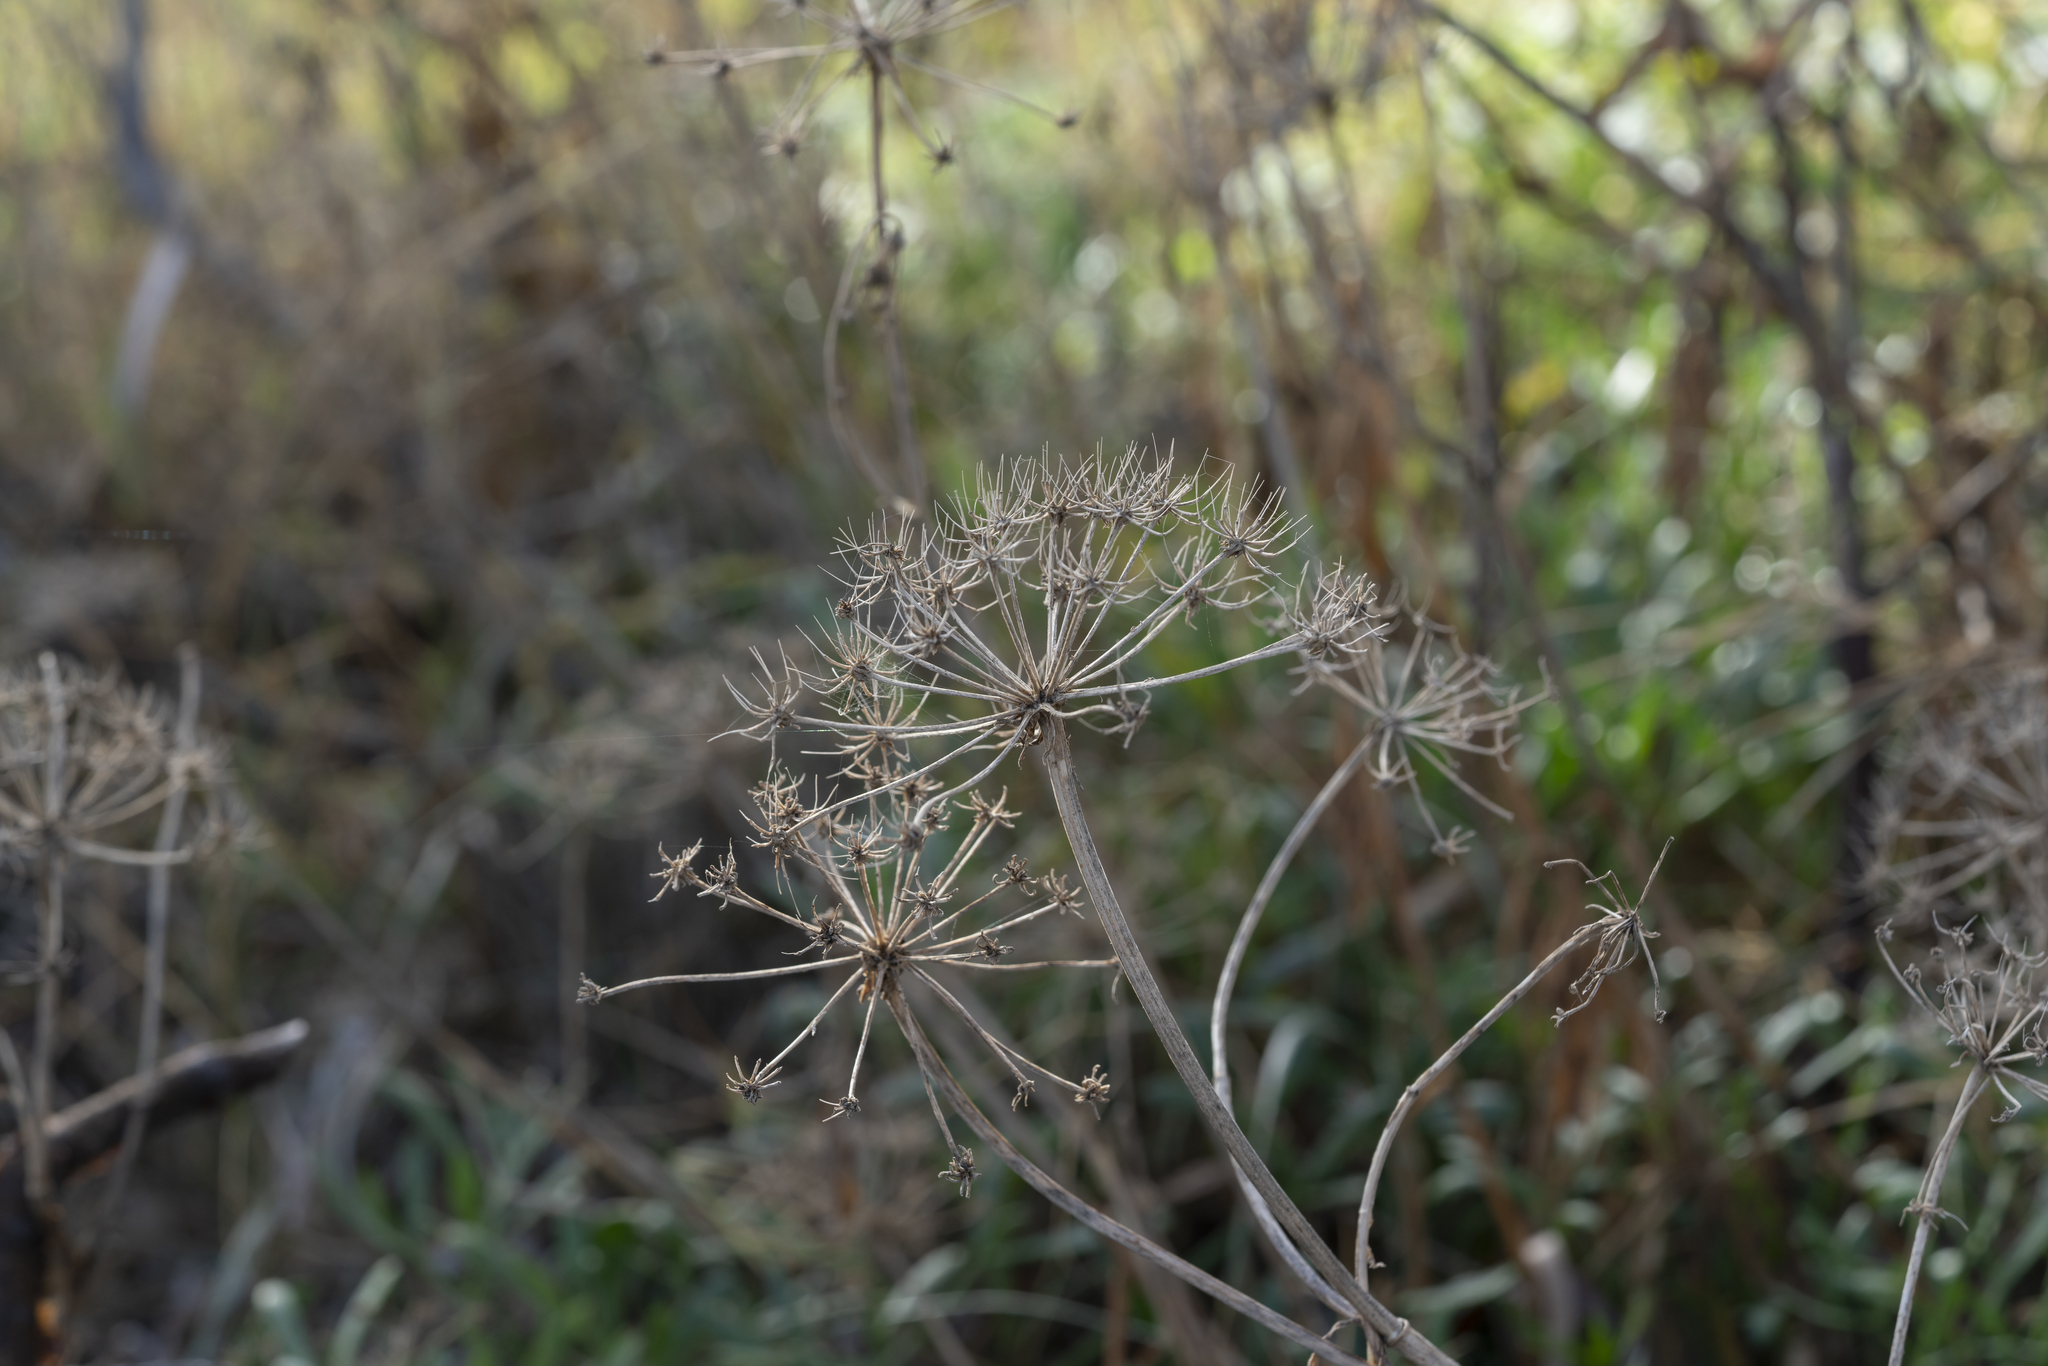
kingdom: Plantae
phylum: Tracheophyta
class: Magnoliopsida
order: Apiales
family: Apiaceae
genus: Crithmum
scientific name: Crithmum maritimum
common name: Rock samphire
